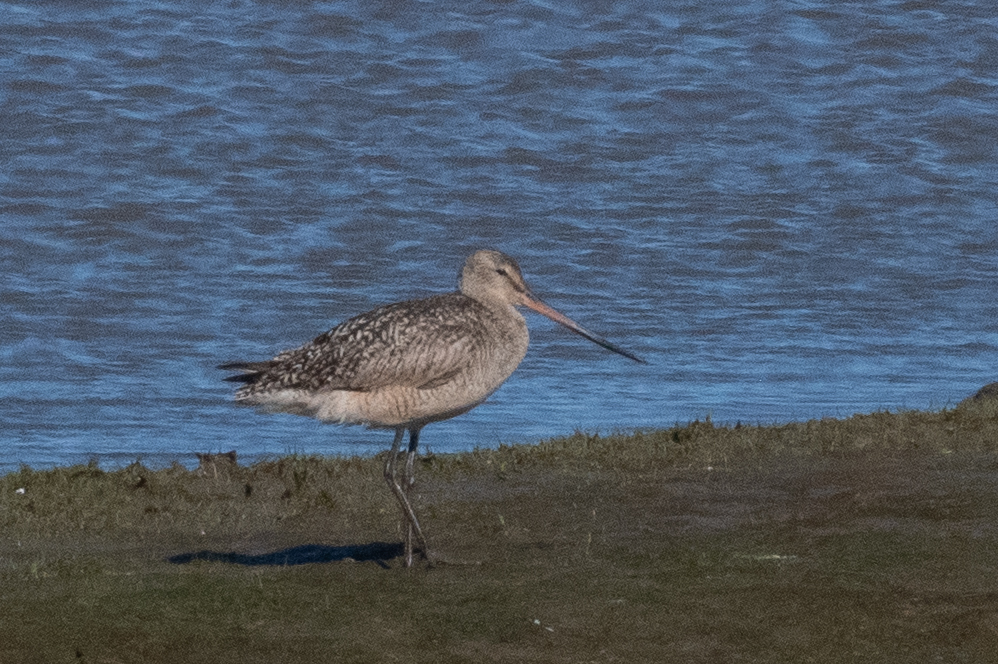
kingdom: Animalia
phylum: Chordata
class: Aves
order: Charadriiformes
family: Scolopacidae
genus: Limosa
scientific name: Limosa fedoa
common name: Marbled godwit
